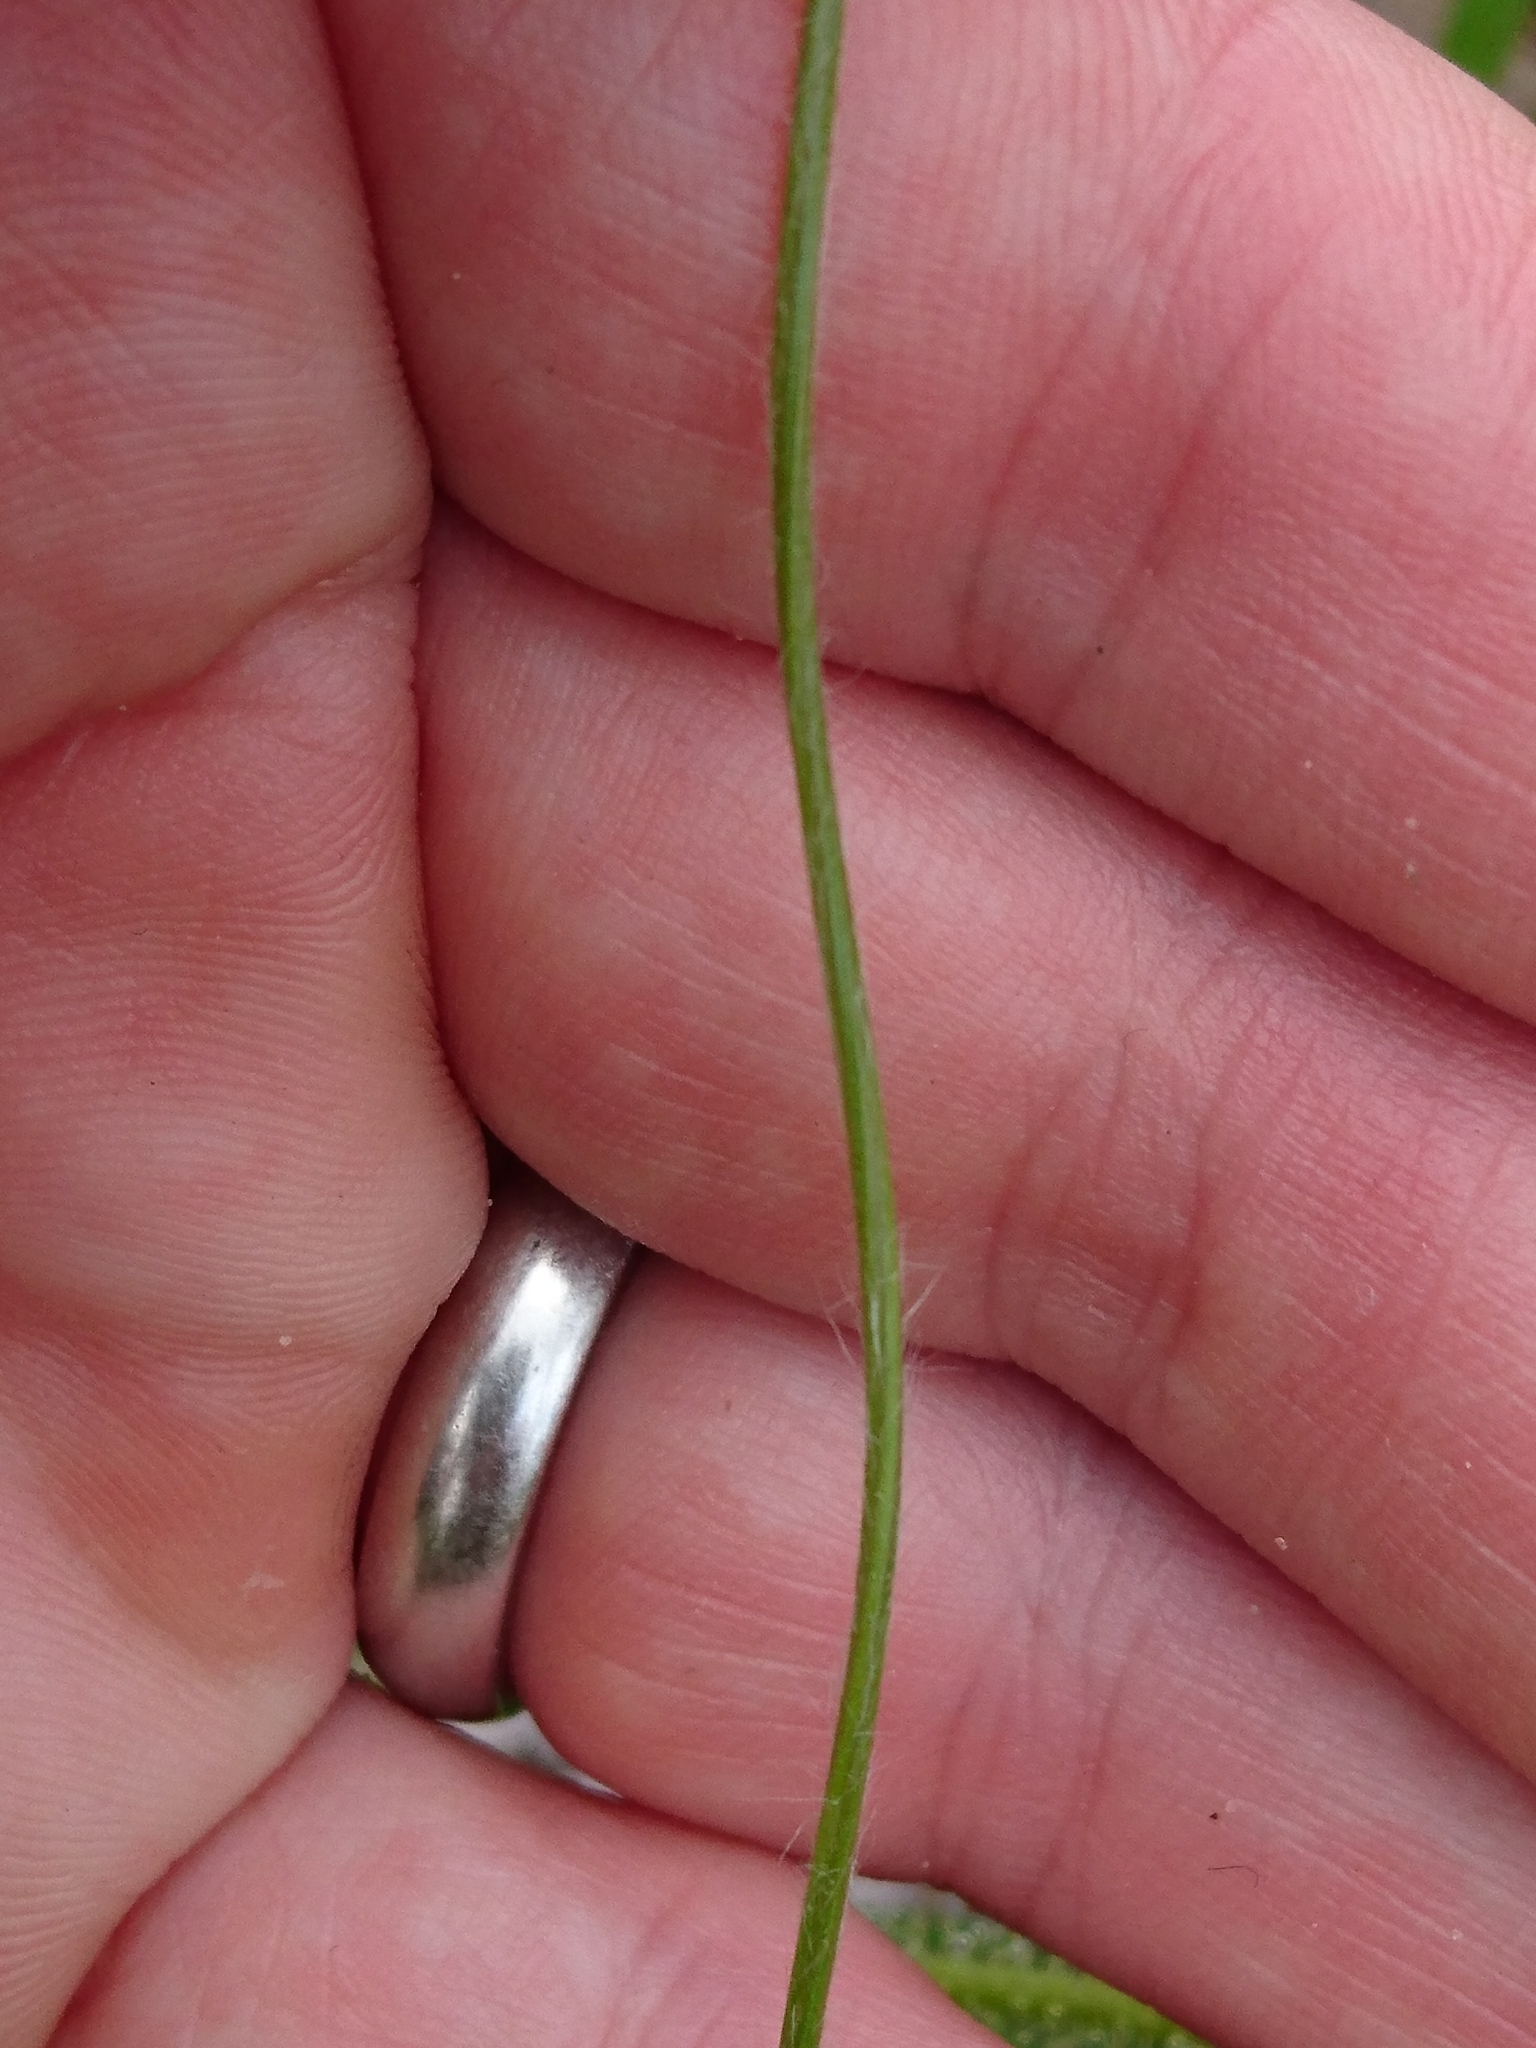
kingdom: Plantae
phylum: Tracheophyta
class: Liliopsida
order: Poales
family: Eriocaulaceae
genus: Paepalanthus
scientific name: Paepalanthus anceps
